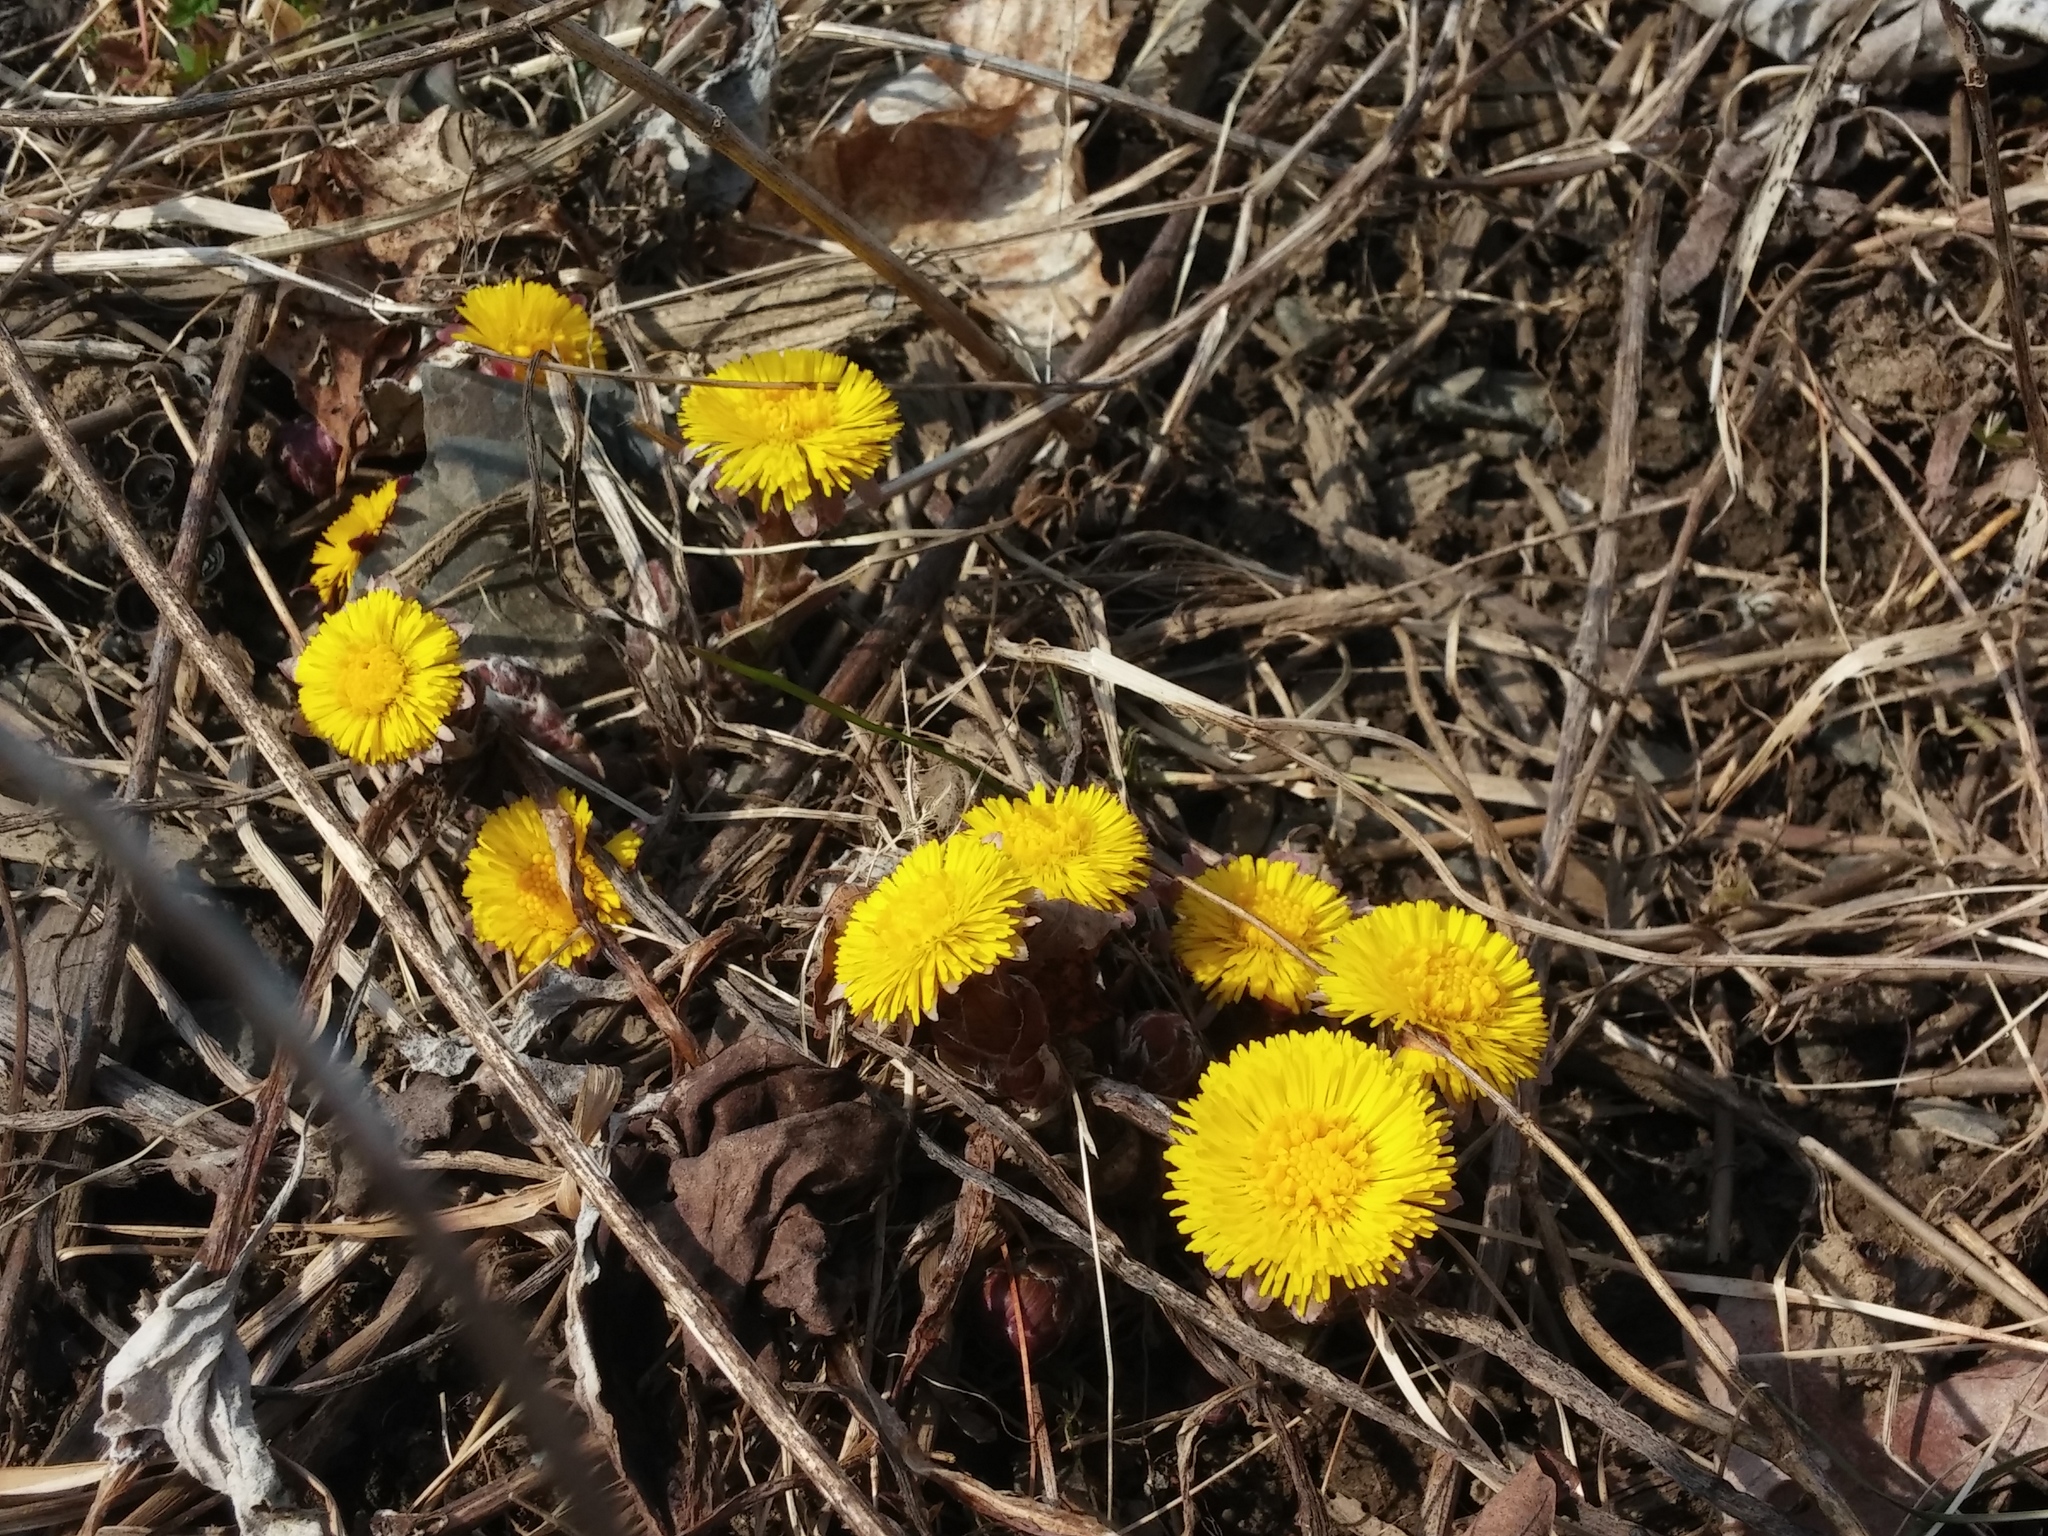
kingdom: Plantae
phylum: Tracheophyta
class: Magnoliopsida
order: Asterales
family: Asteraceae
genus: Tussilago
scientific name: Tussilago farfara
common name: Coltsfoot
